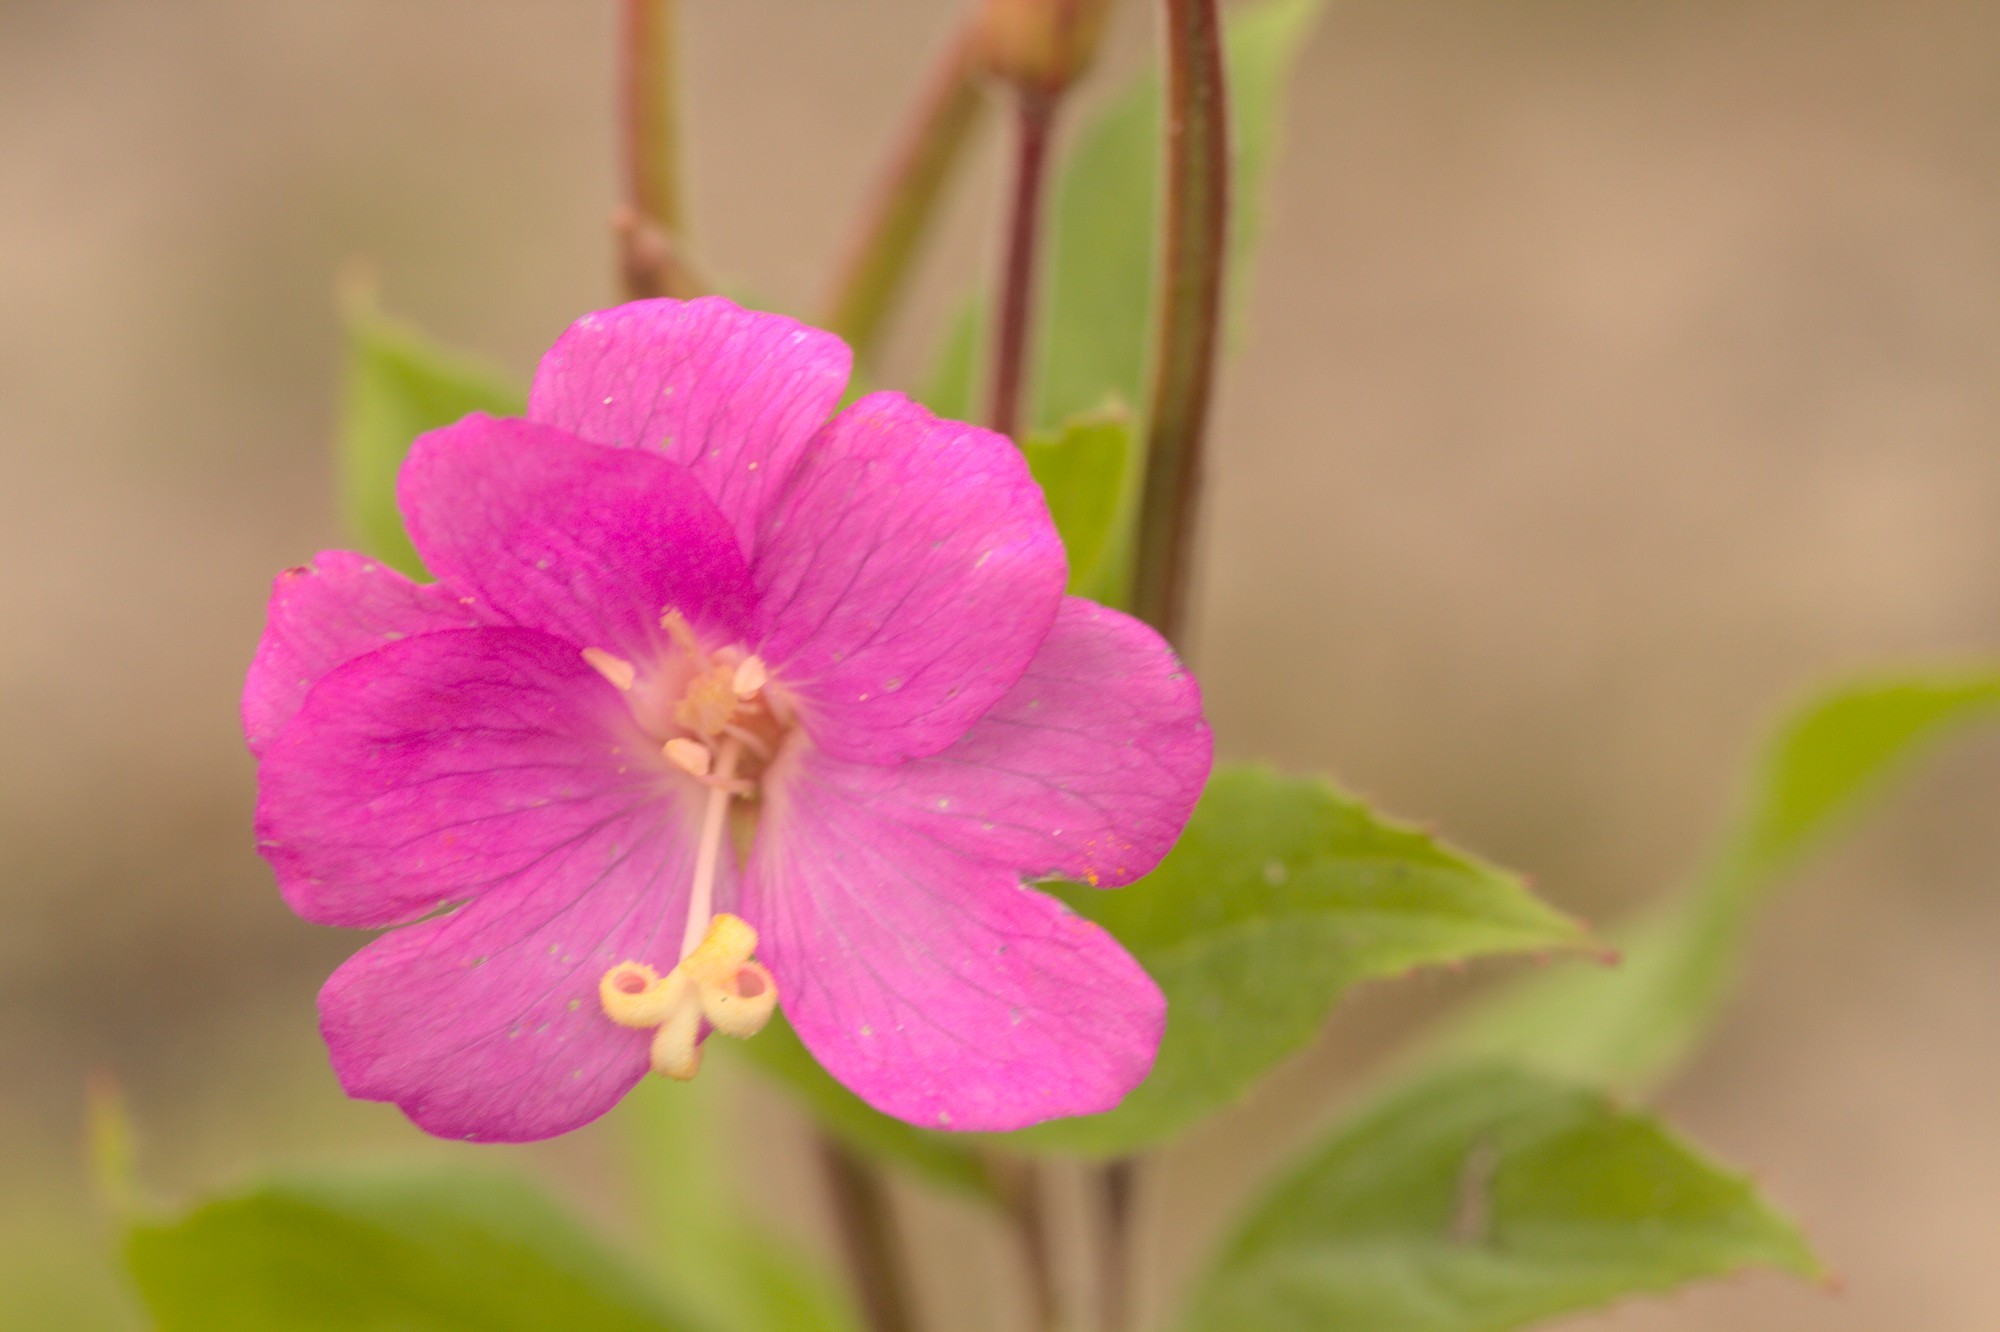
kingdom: Plantae
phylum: Tracheophyta
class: Magnoliopsida
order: Myrtales
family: Onagraceae
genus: Epilobium
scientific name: Epilobium hirsutum
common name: Great willowherb
